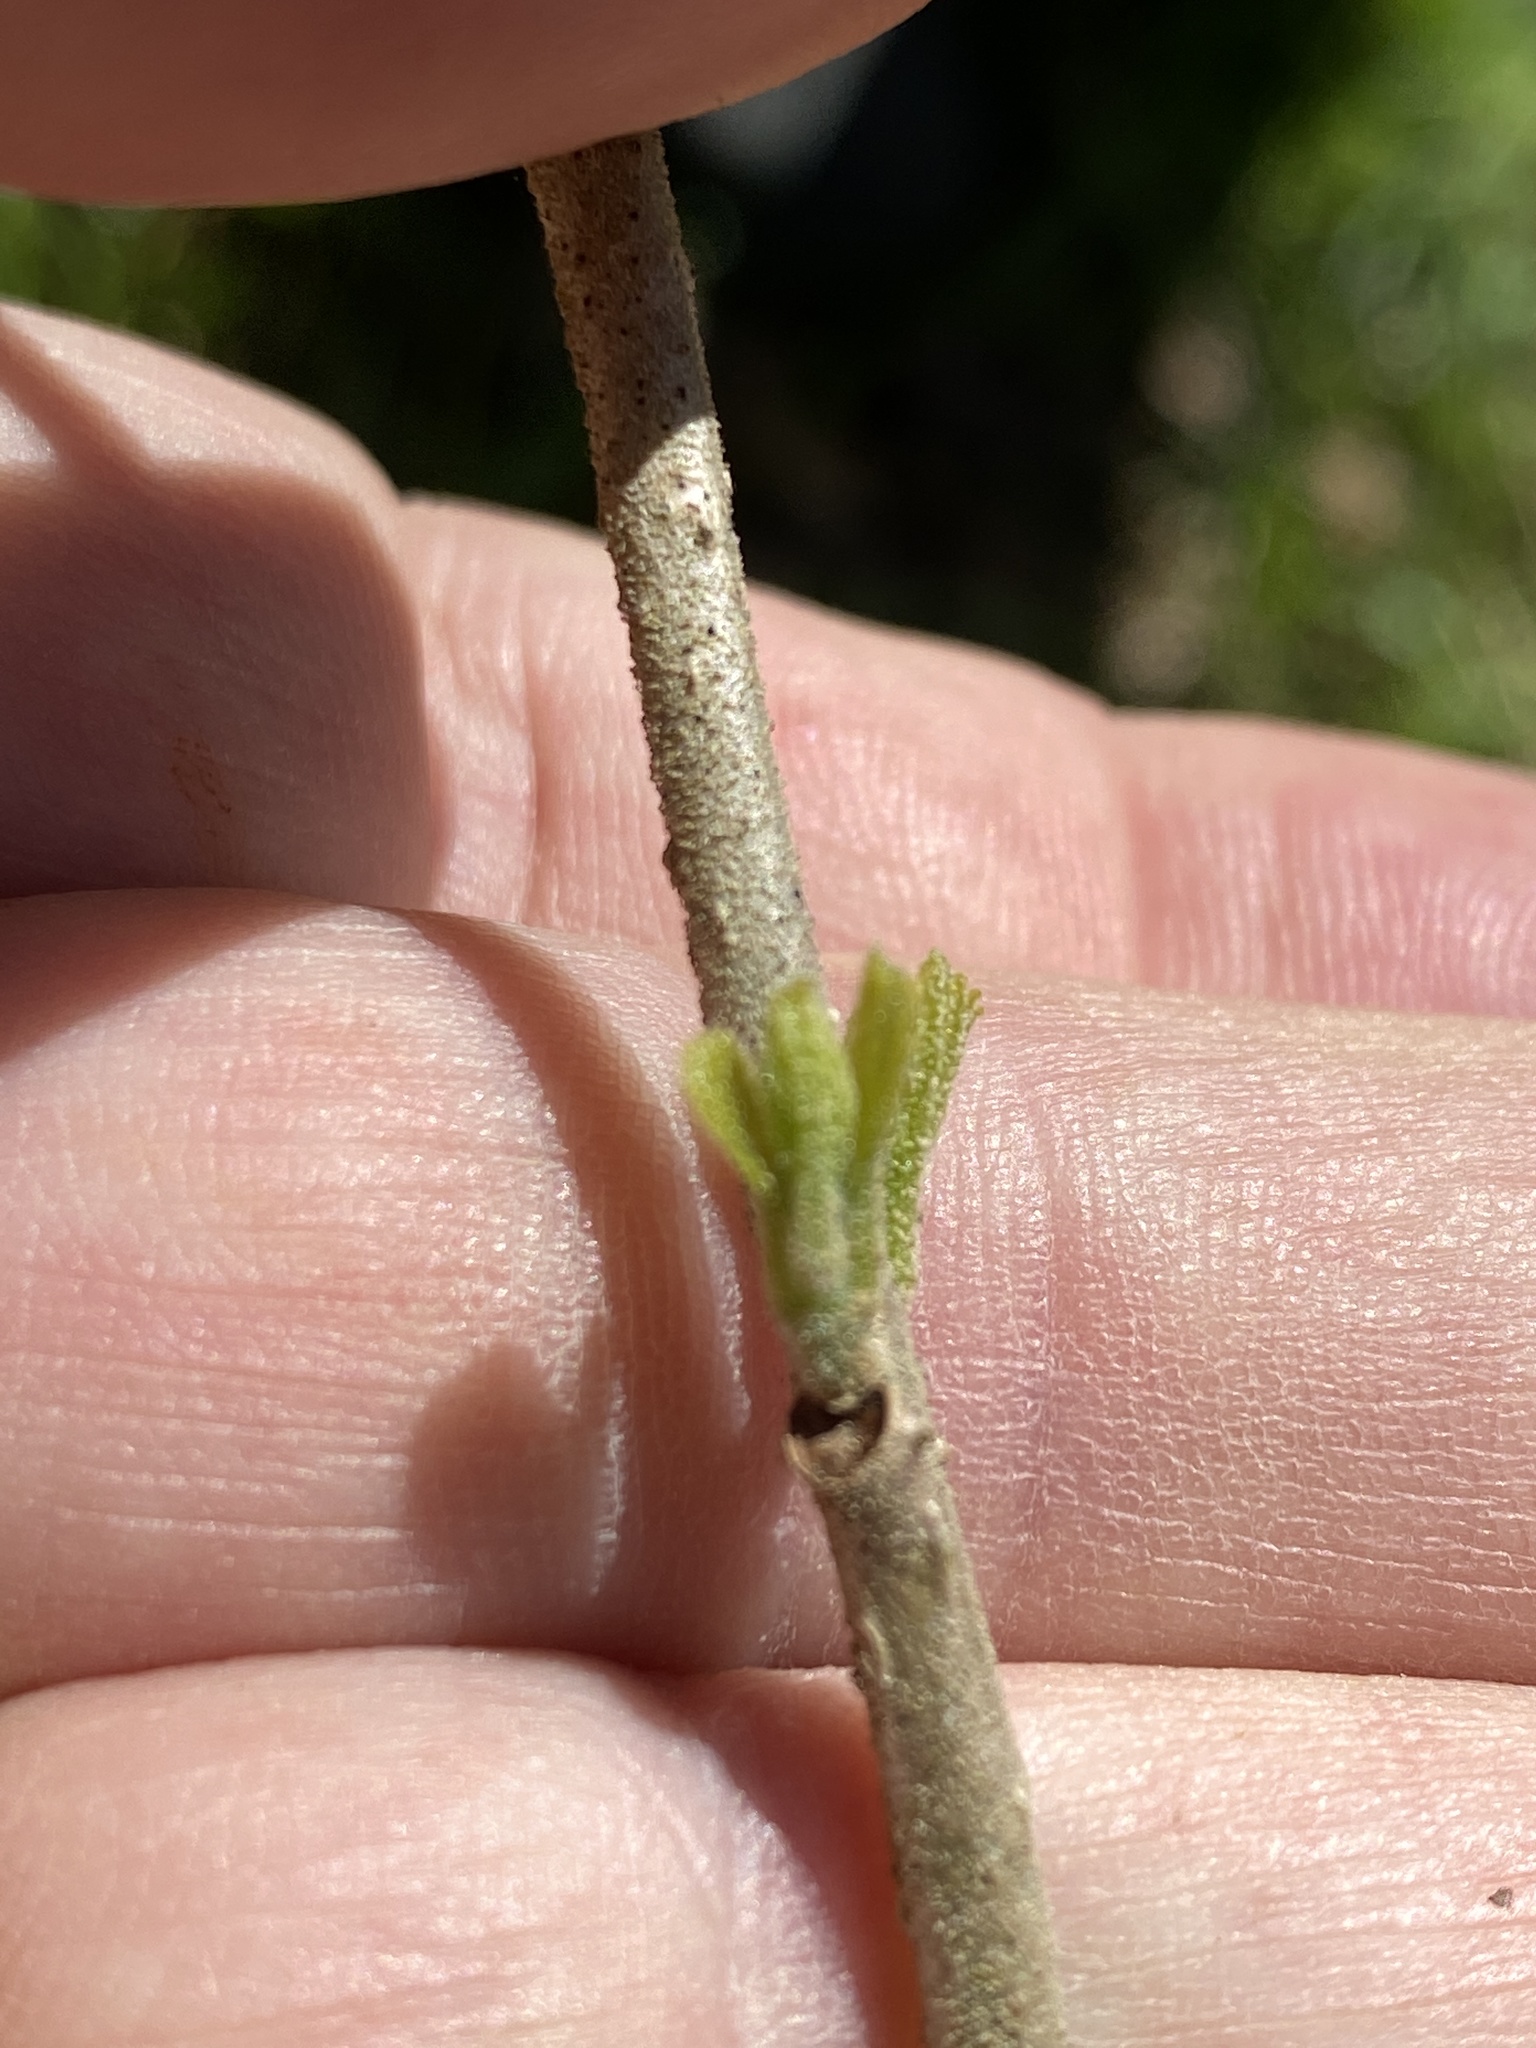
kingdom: Plantae
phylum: Tracheophyta
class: Magnoliopsida
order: Lamiales
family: Lamiaceae
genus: Callicarpa
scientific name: Callicarpa americana
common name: American beautyberry
